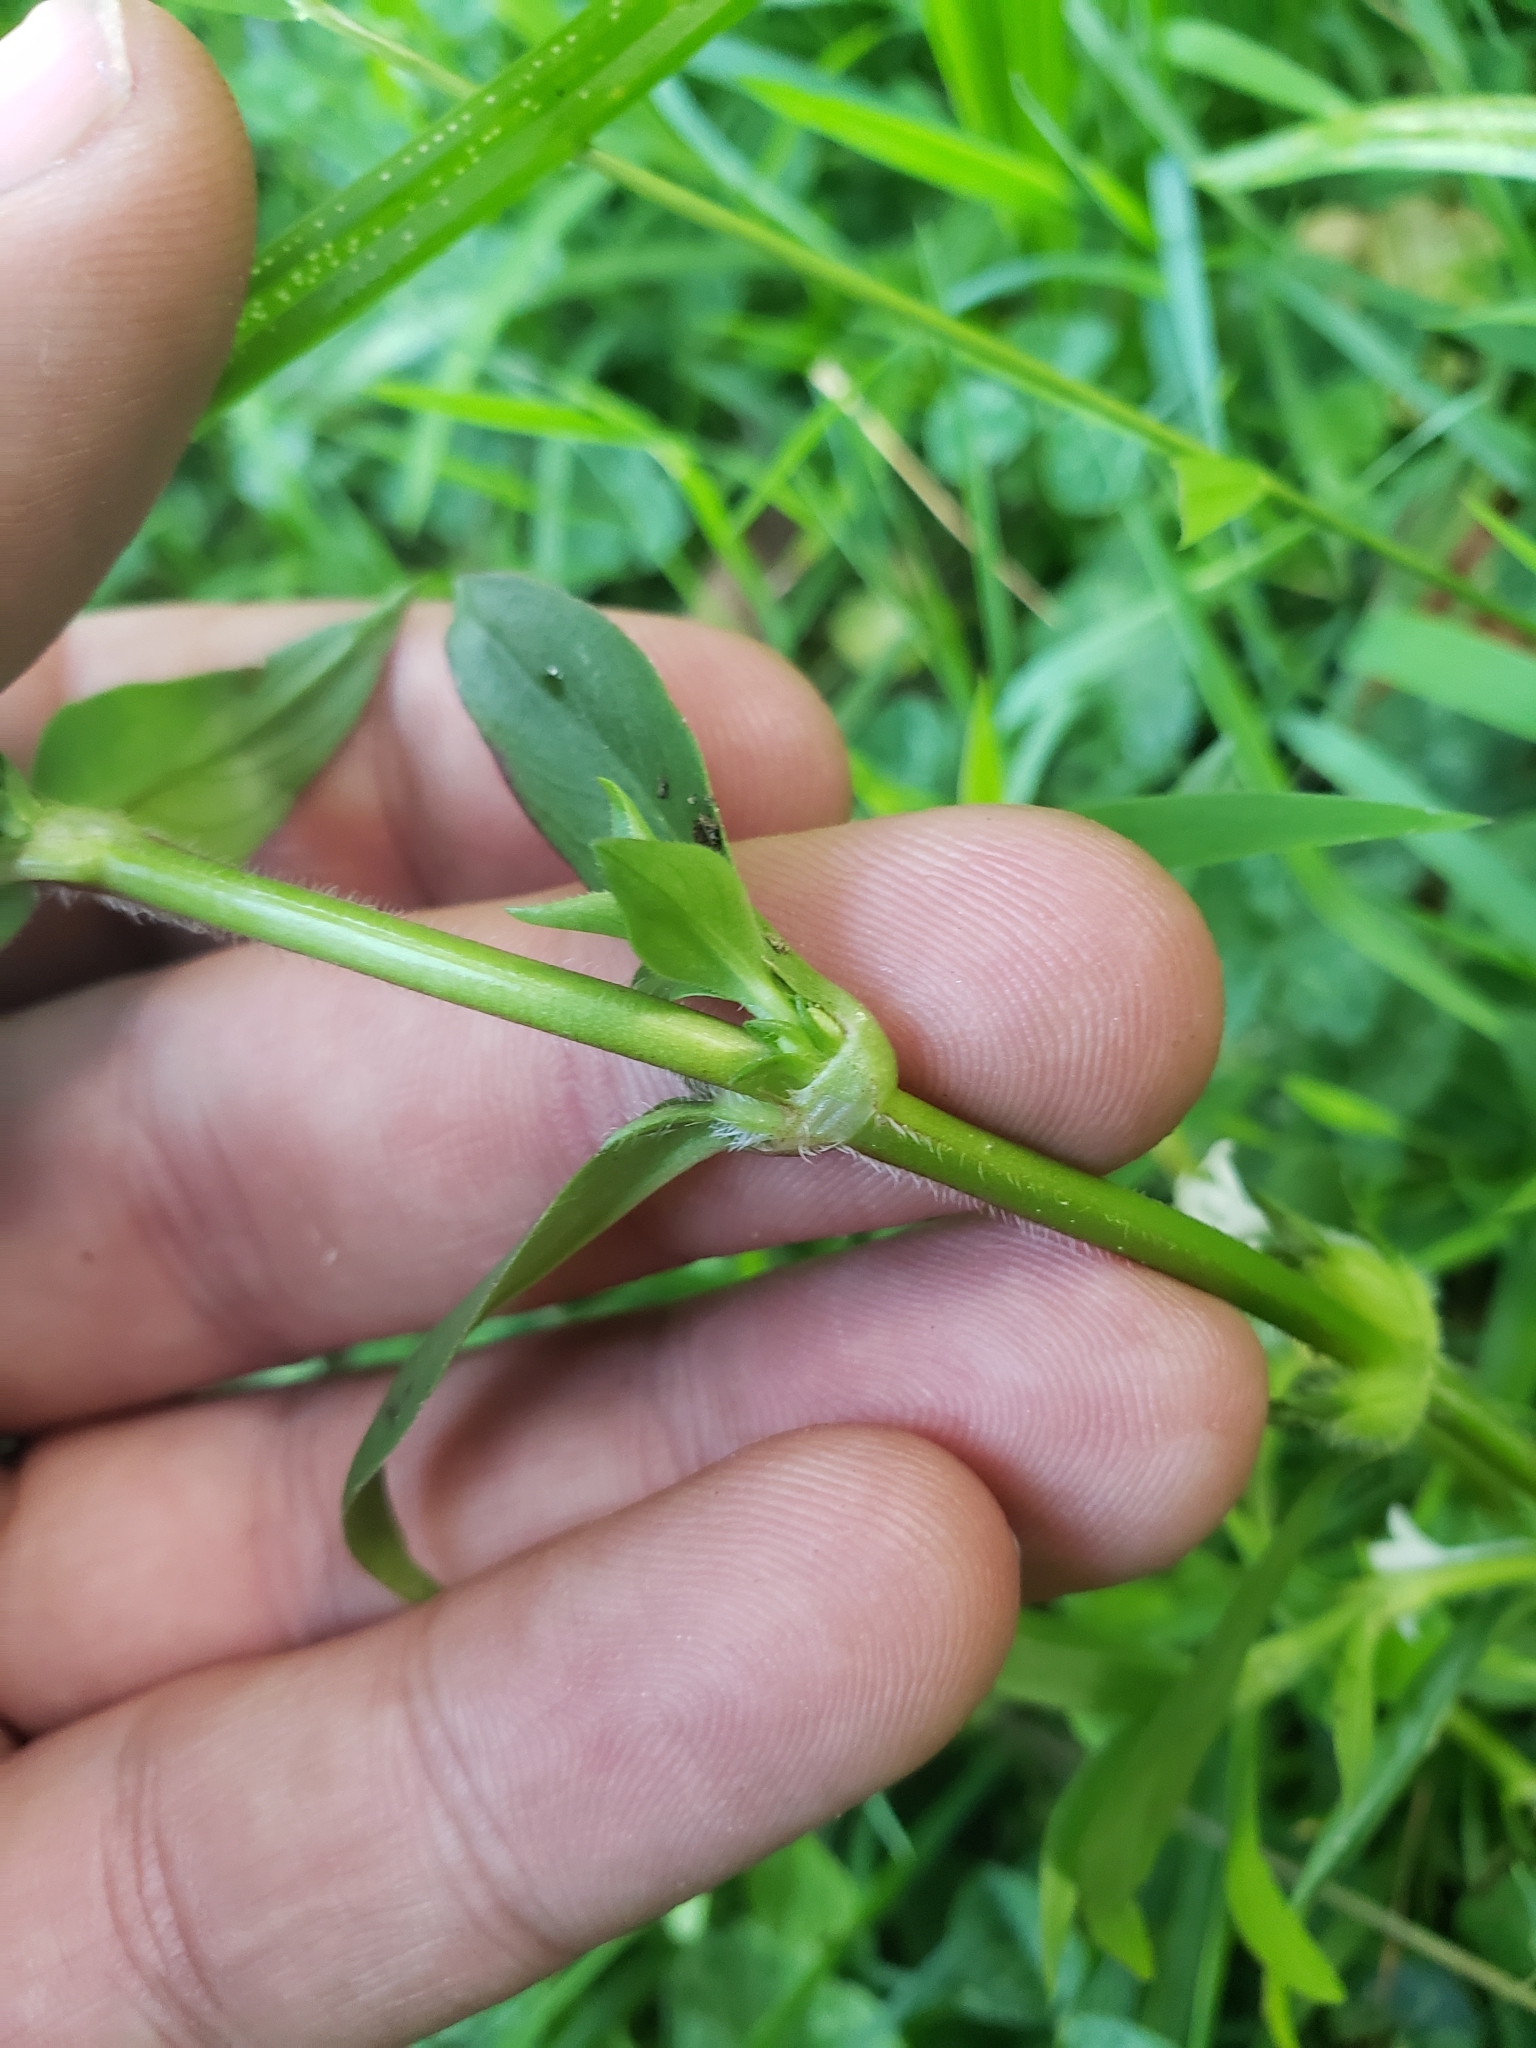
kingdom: Plantae
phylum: Tracheophyta
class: Magnoliopsida
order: Gentianales
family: Rubiaceae
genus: Diodia
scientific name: Diodia virginiana
